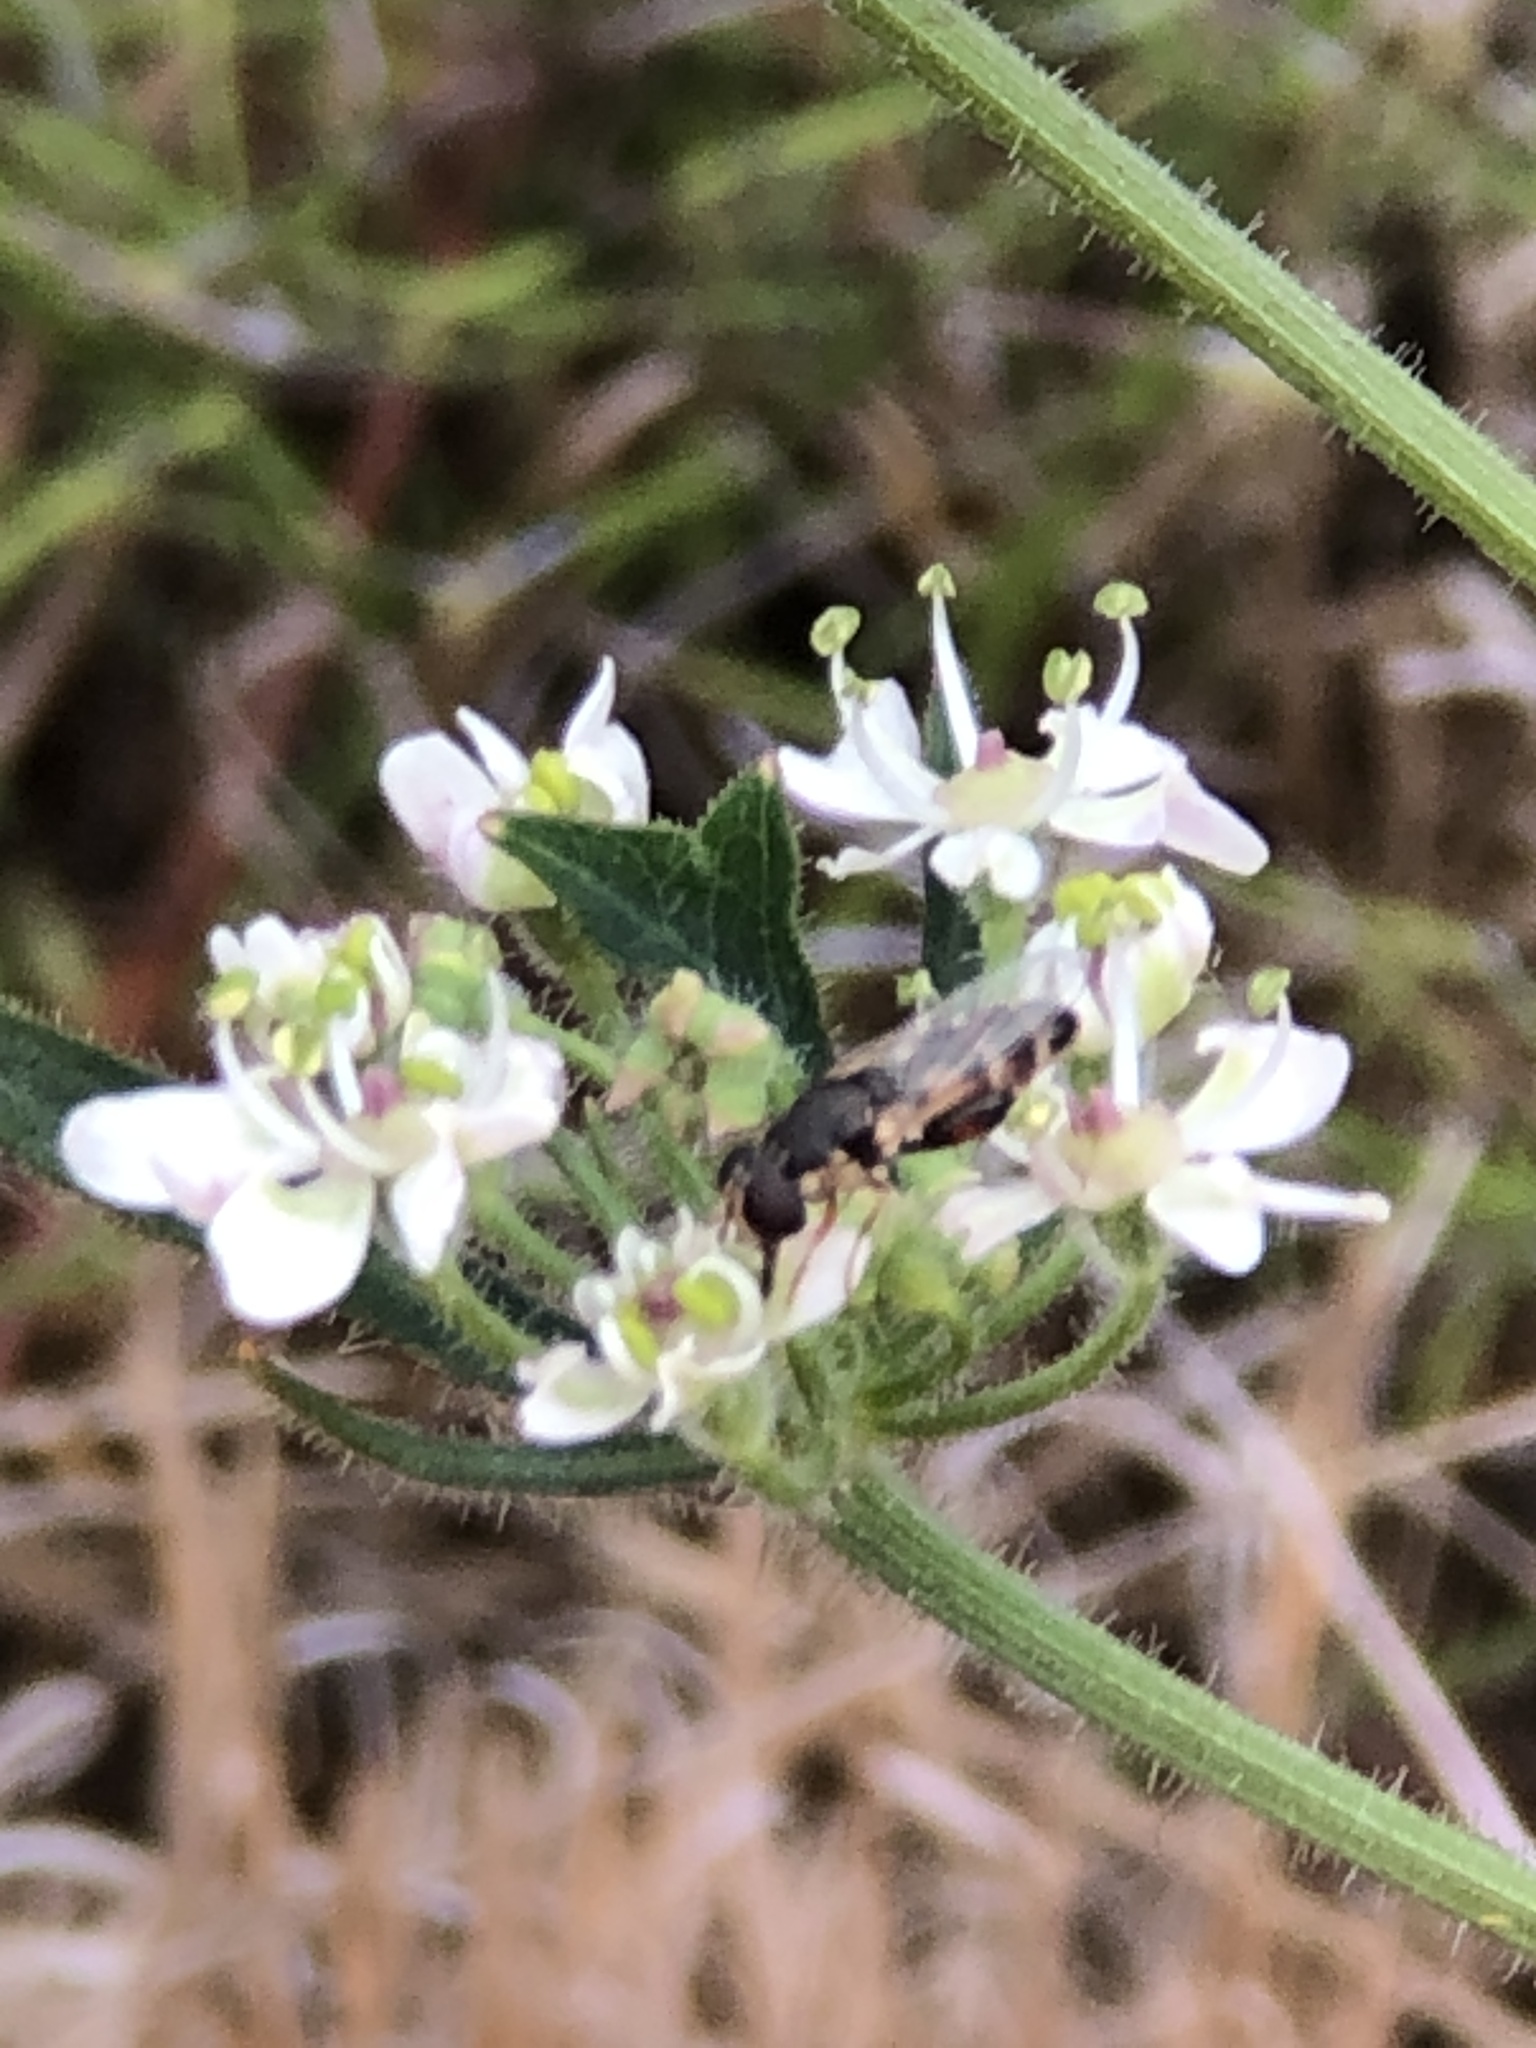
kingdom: Animalia
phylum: Arthropoda
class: Insecta
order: Diptera
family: Syrphidae
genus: Syritta
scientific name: Syritta pipiens
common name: Hover fly
